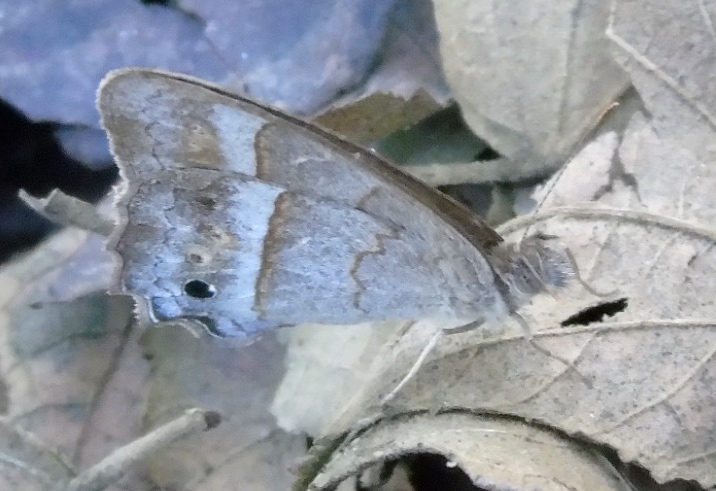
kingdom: Animalia
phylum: Arthropoda
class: Insecta
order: Lepidoptera
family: Nymphalidae
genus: Vareuptychia
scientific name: Vareuptychia similis
